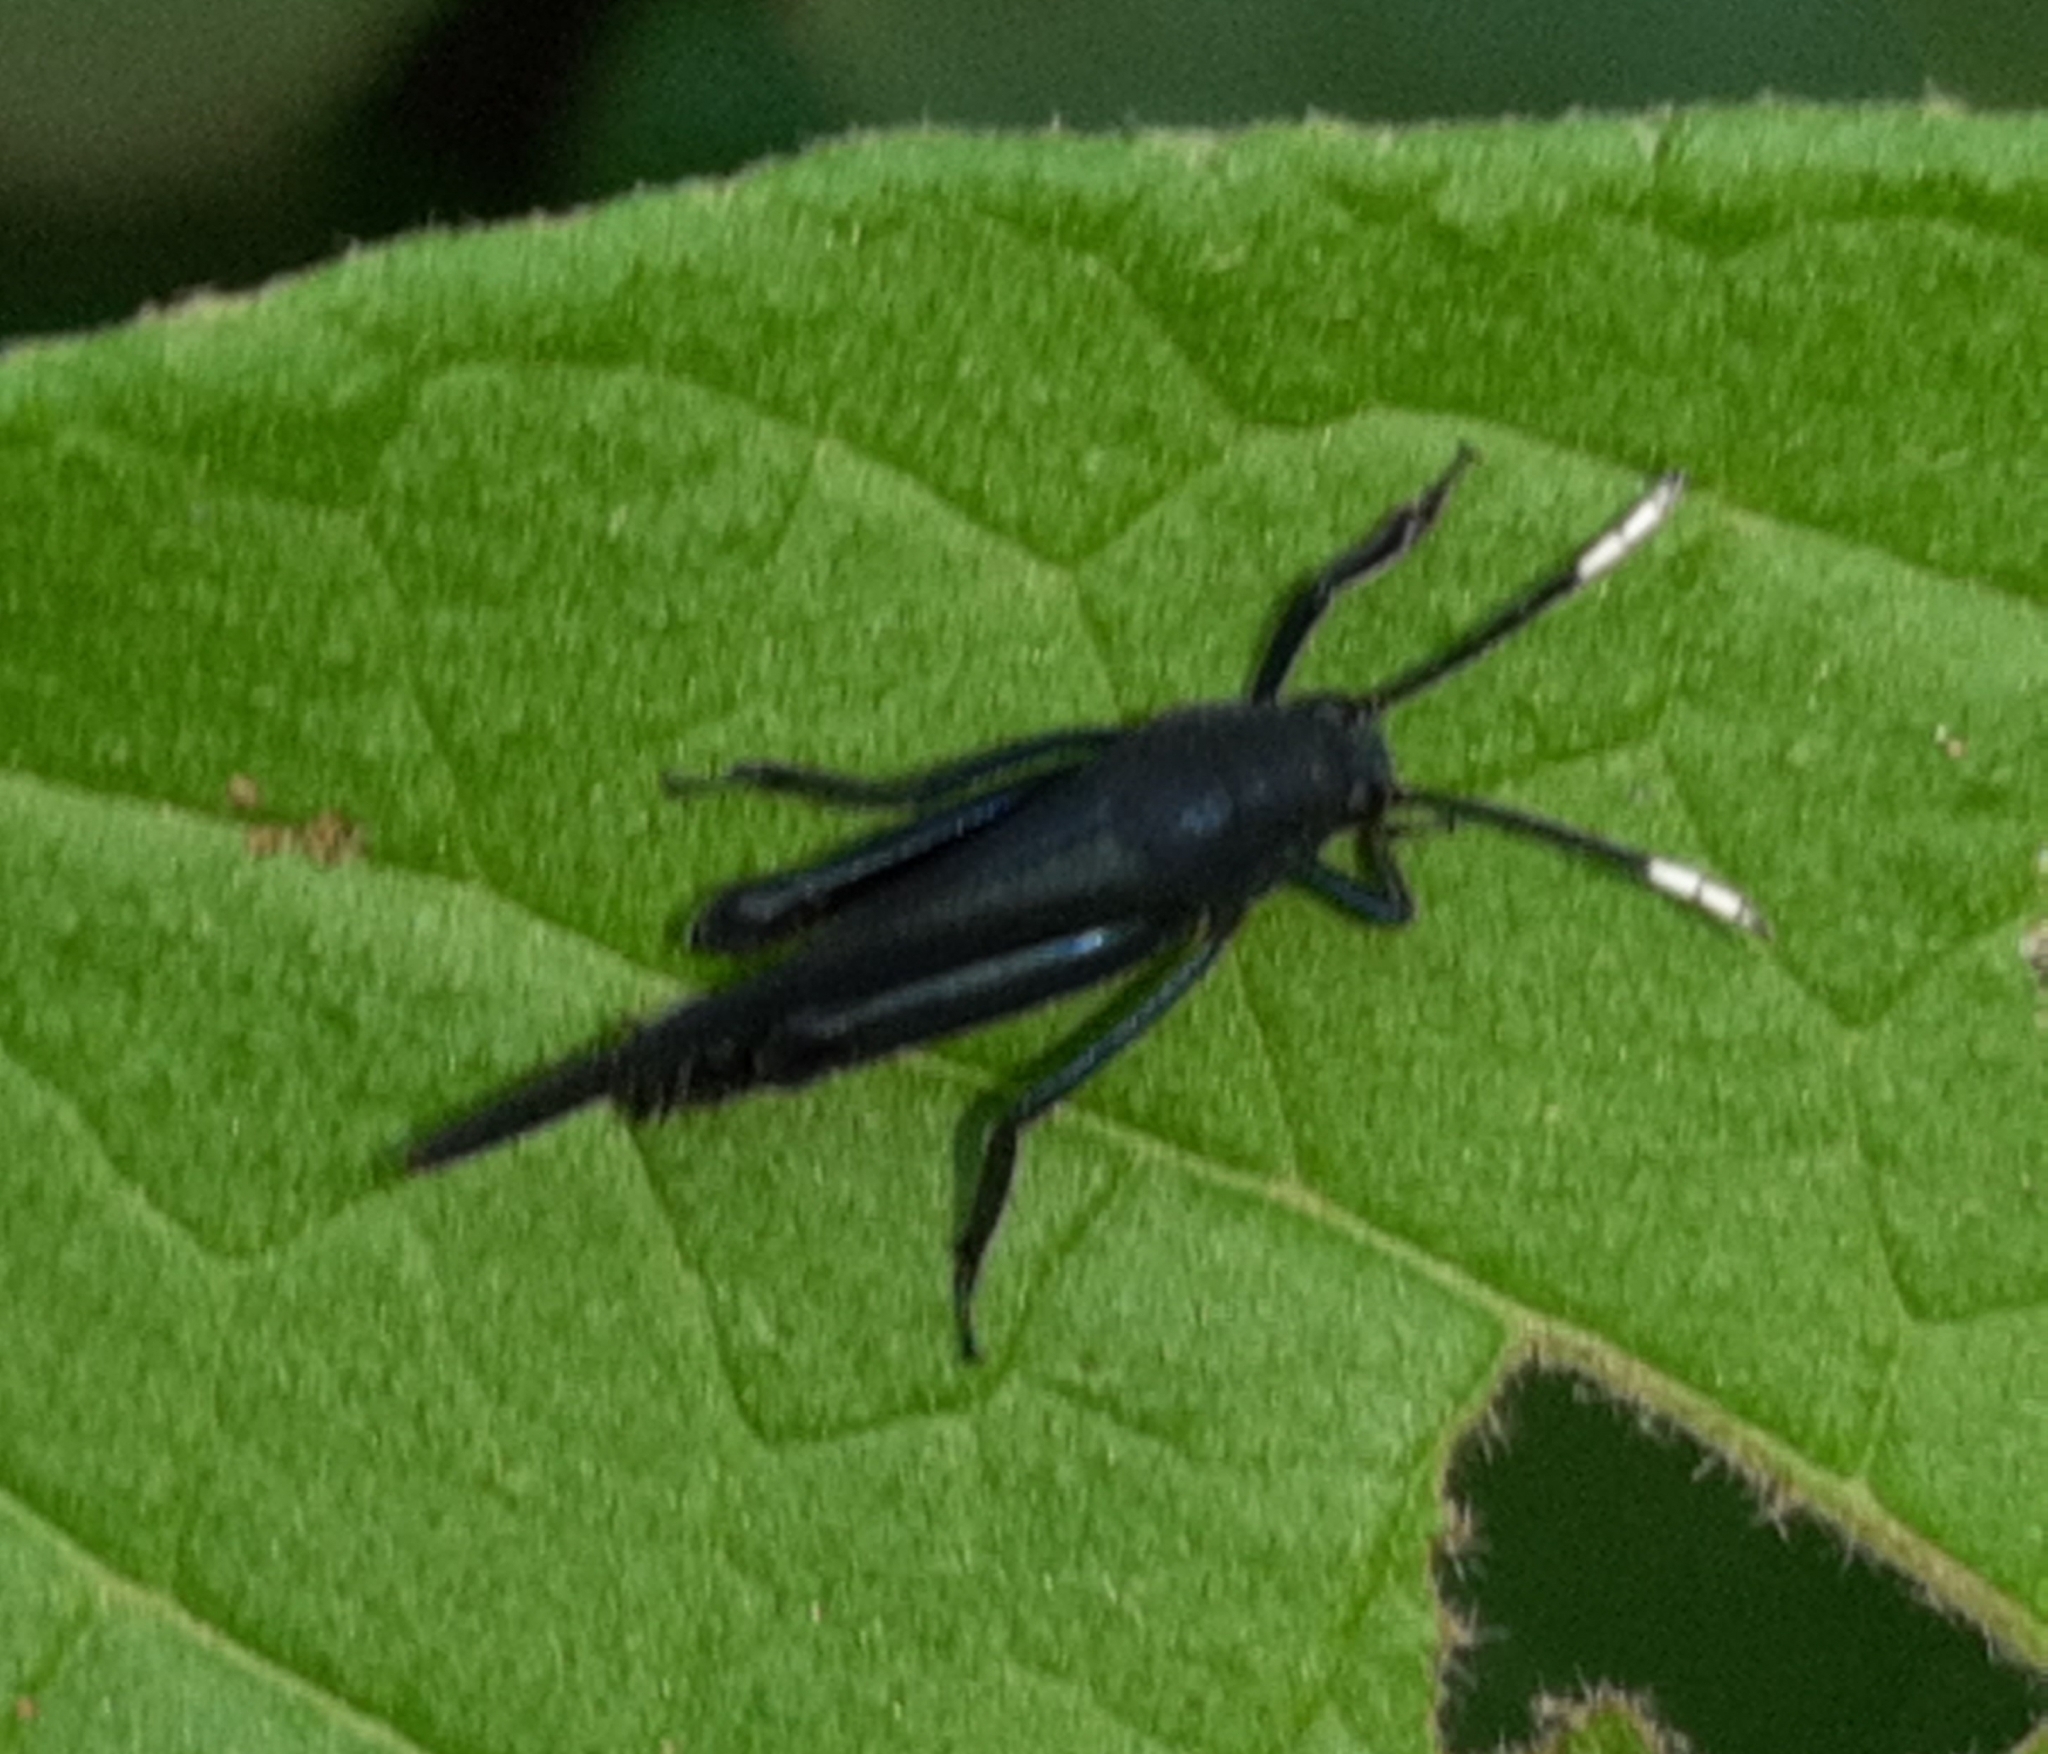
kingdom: Animalia
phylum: Arthropoda
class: Insecta
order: Orthoptera
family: Ripipterygidae
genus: Ripipteryx
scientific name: Ripipteryx forceps
